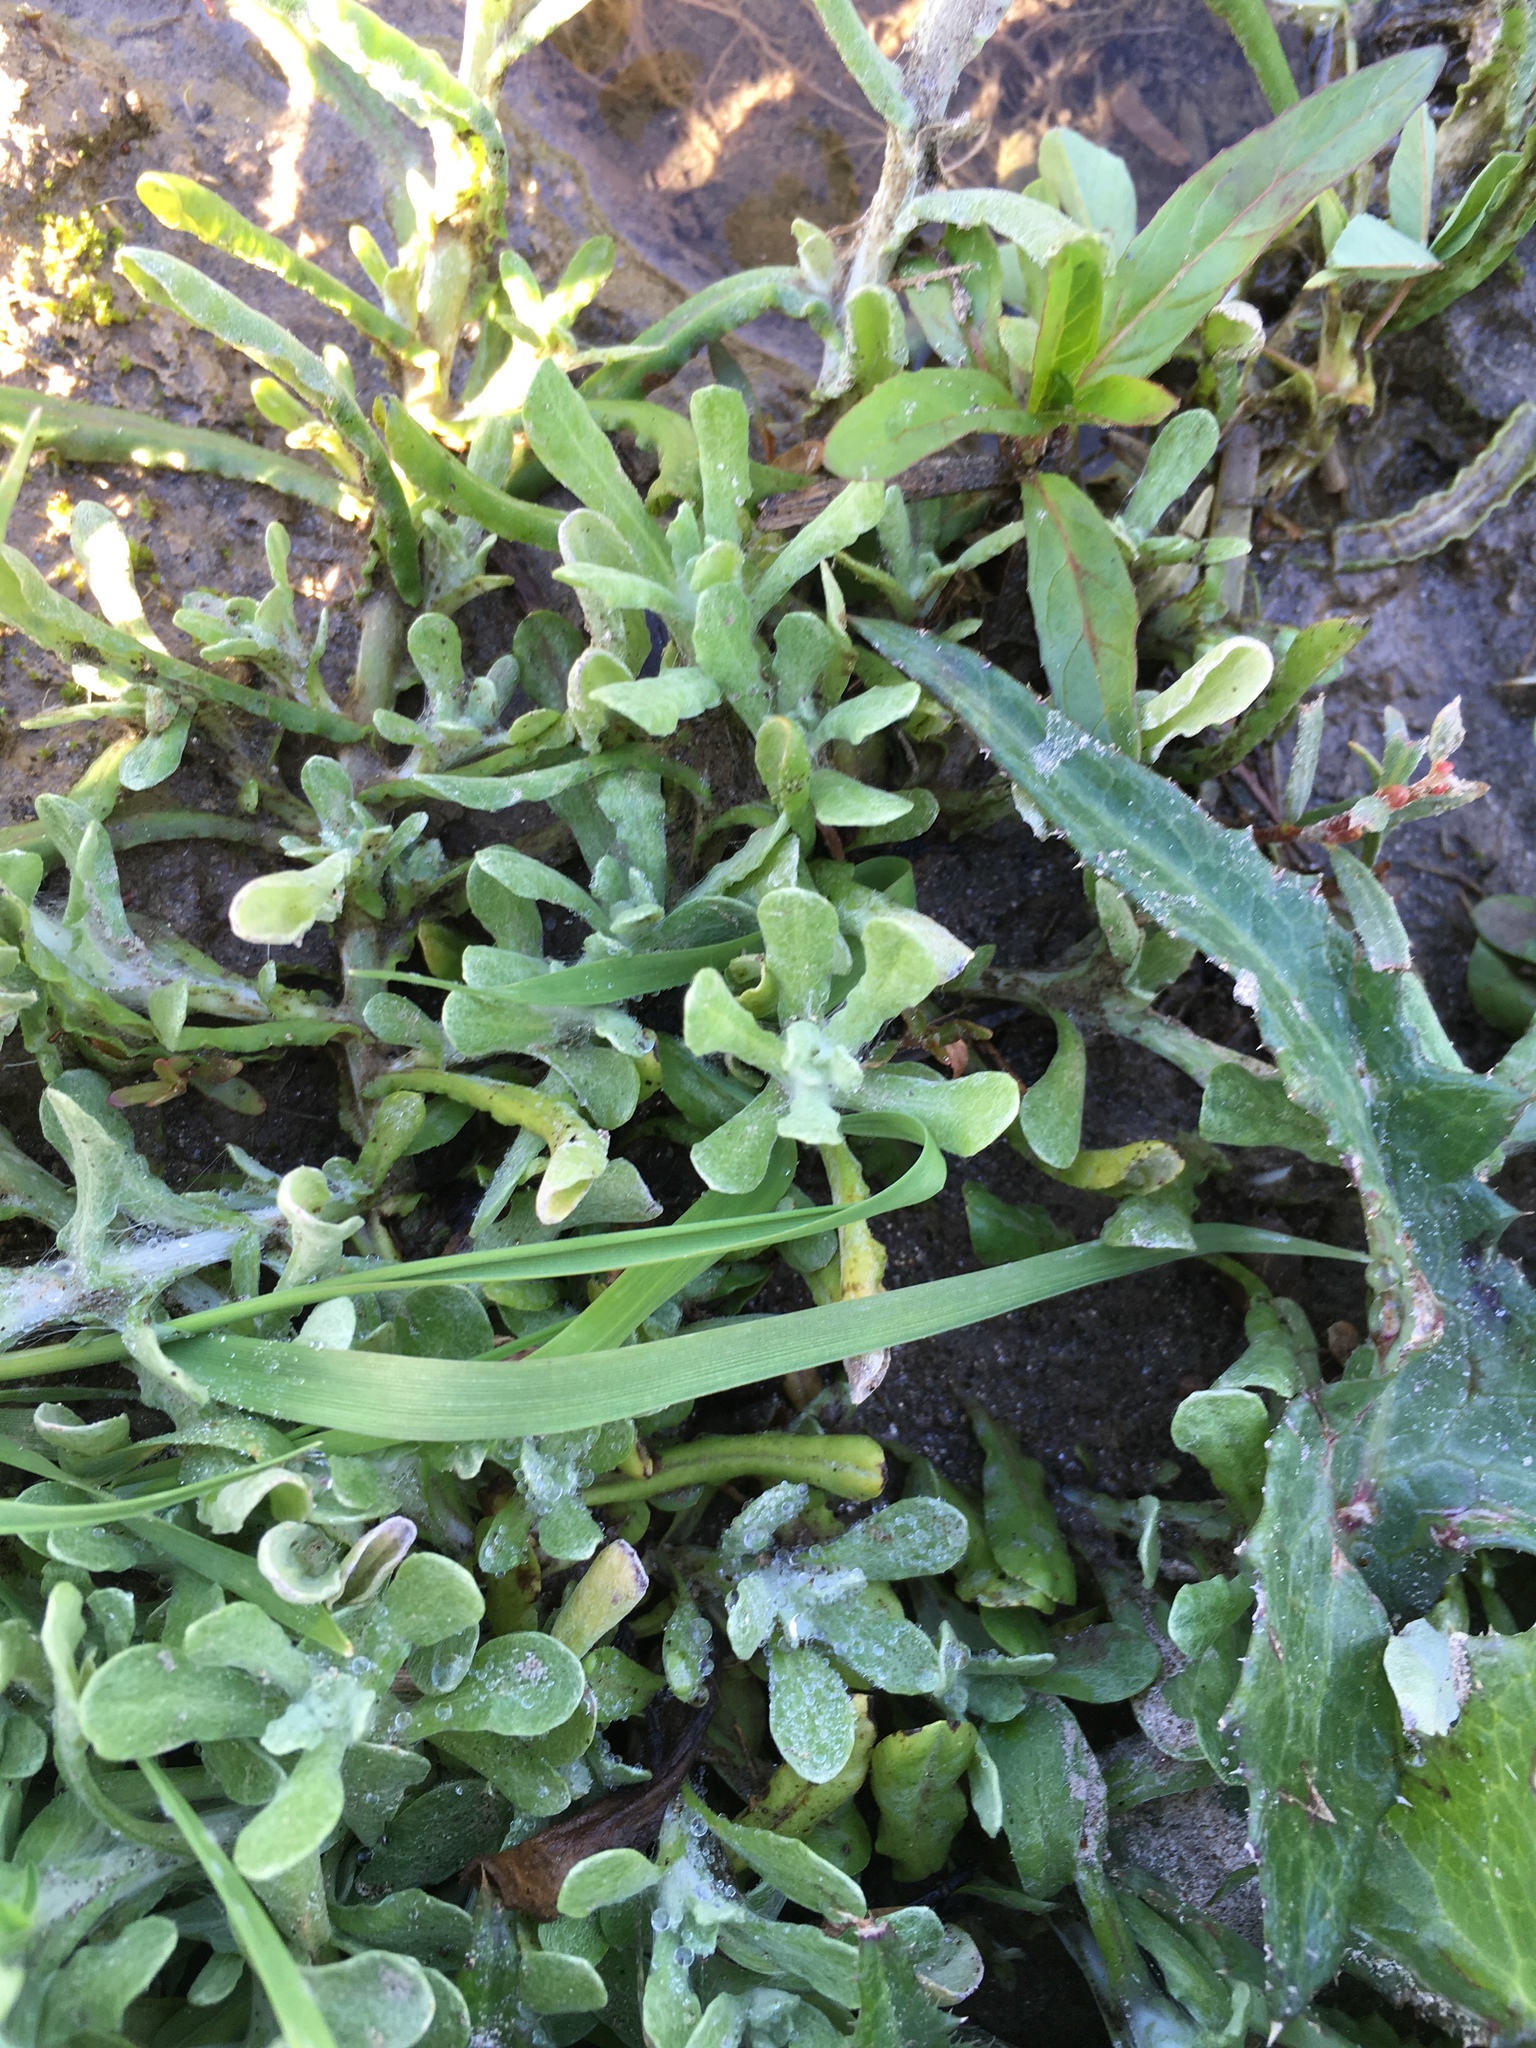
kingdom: Plantae
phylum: Tracheophyta
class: Magnoliopsida
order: Asterales
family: Asteraceae
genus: Helichrysum
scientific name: Helichrysum luteoalbum
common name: Daisy
